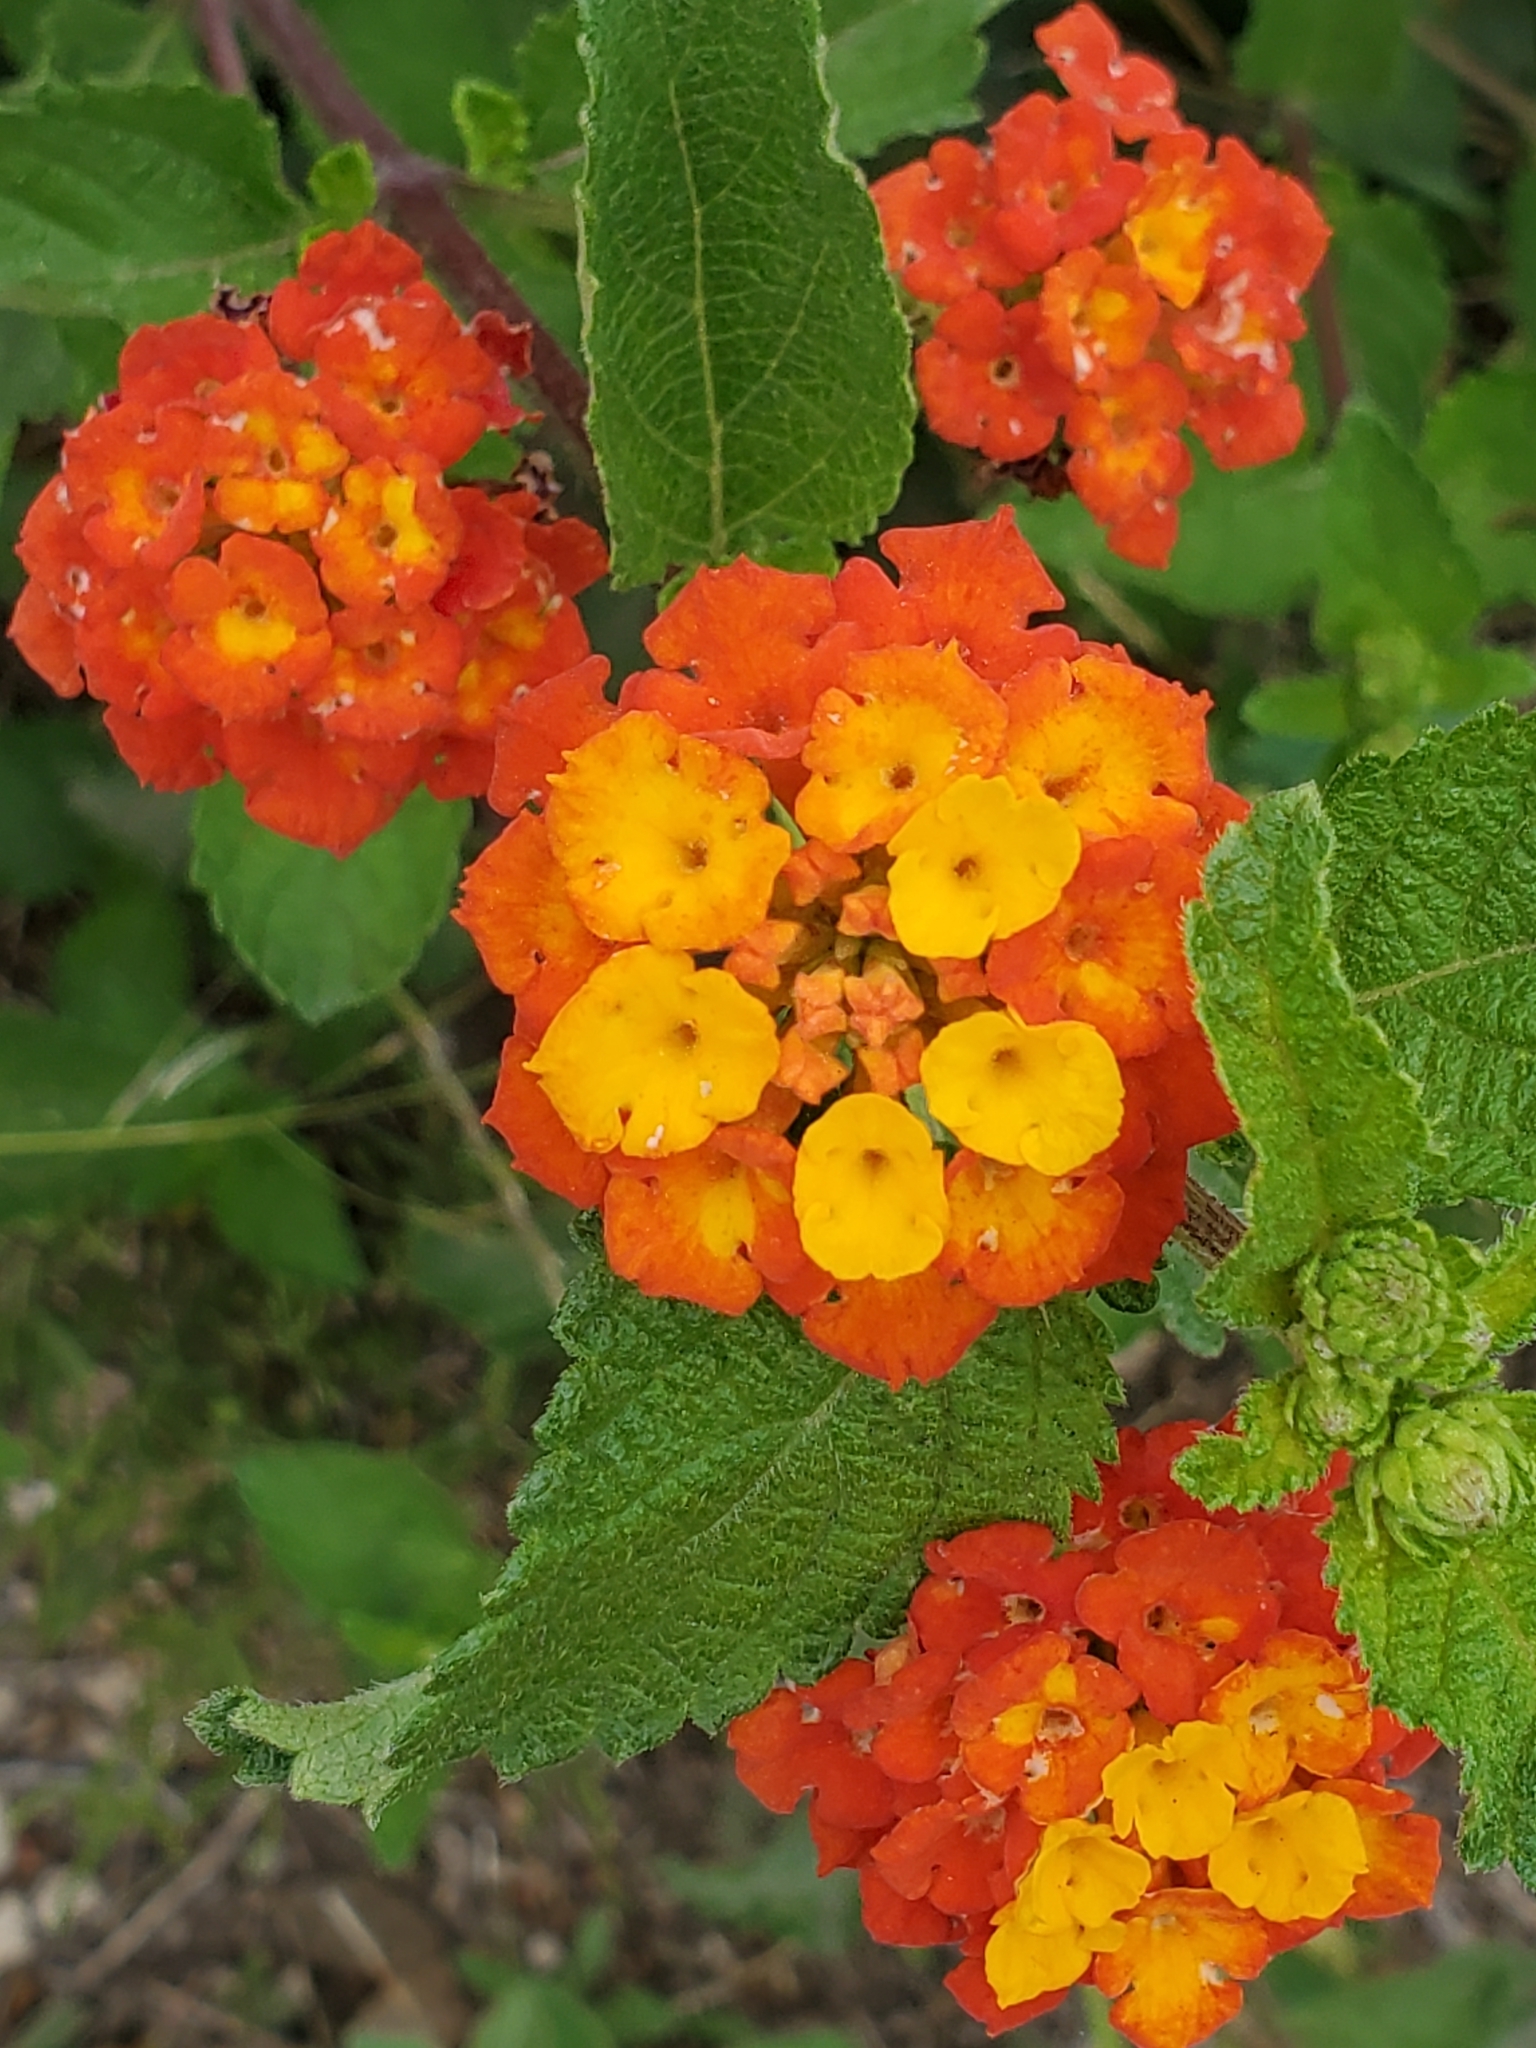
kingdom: Plantae
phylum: Tracheophyta
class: Magnoliopsida
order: Lamiales
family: Verbenaceae
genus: Lantana
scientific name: Lantana urticoides
